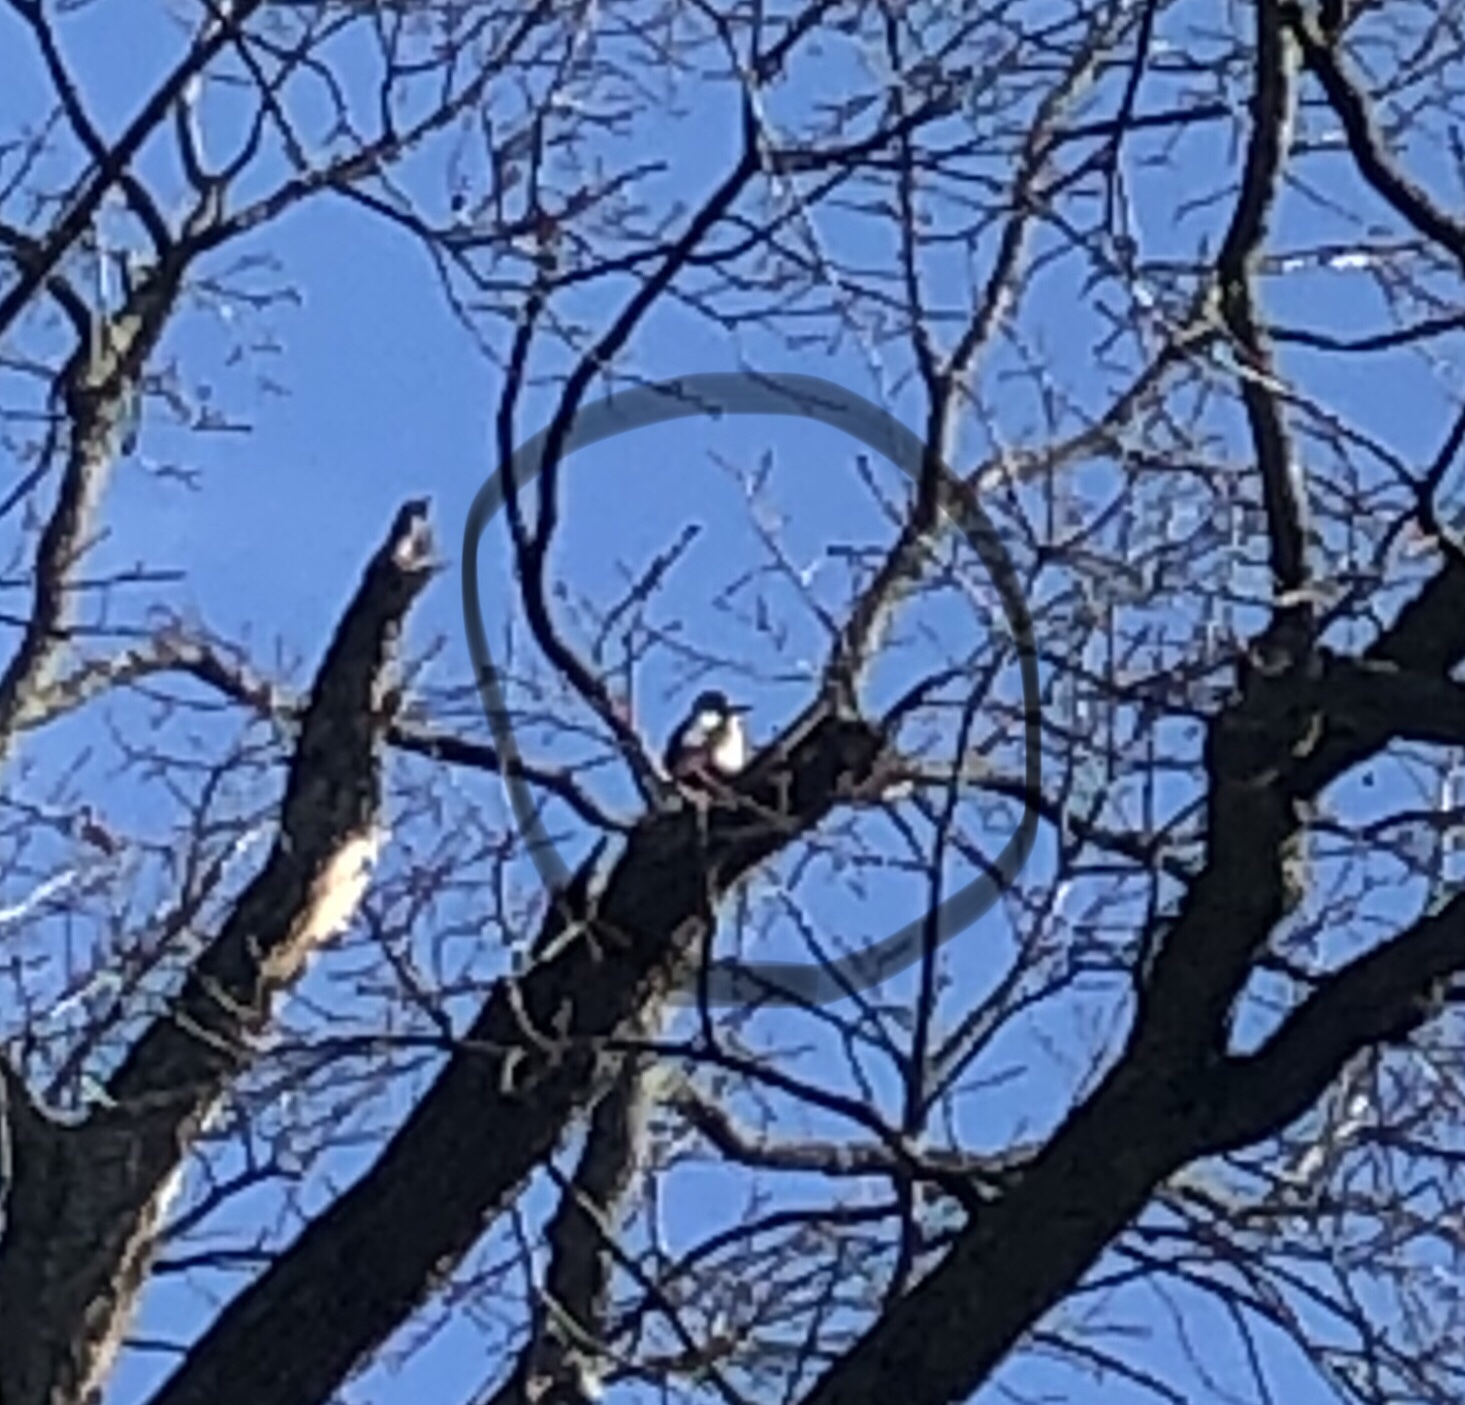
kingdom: Animalia
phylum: Chordata
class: Aves
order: Piciformes
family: Picidae
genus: Dendrocopos
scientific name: Dendrocopos major
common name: Great spotted woodpecker
